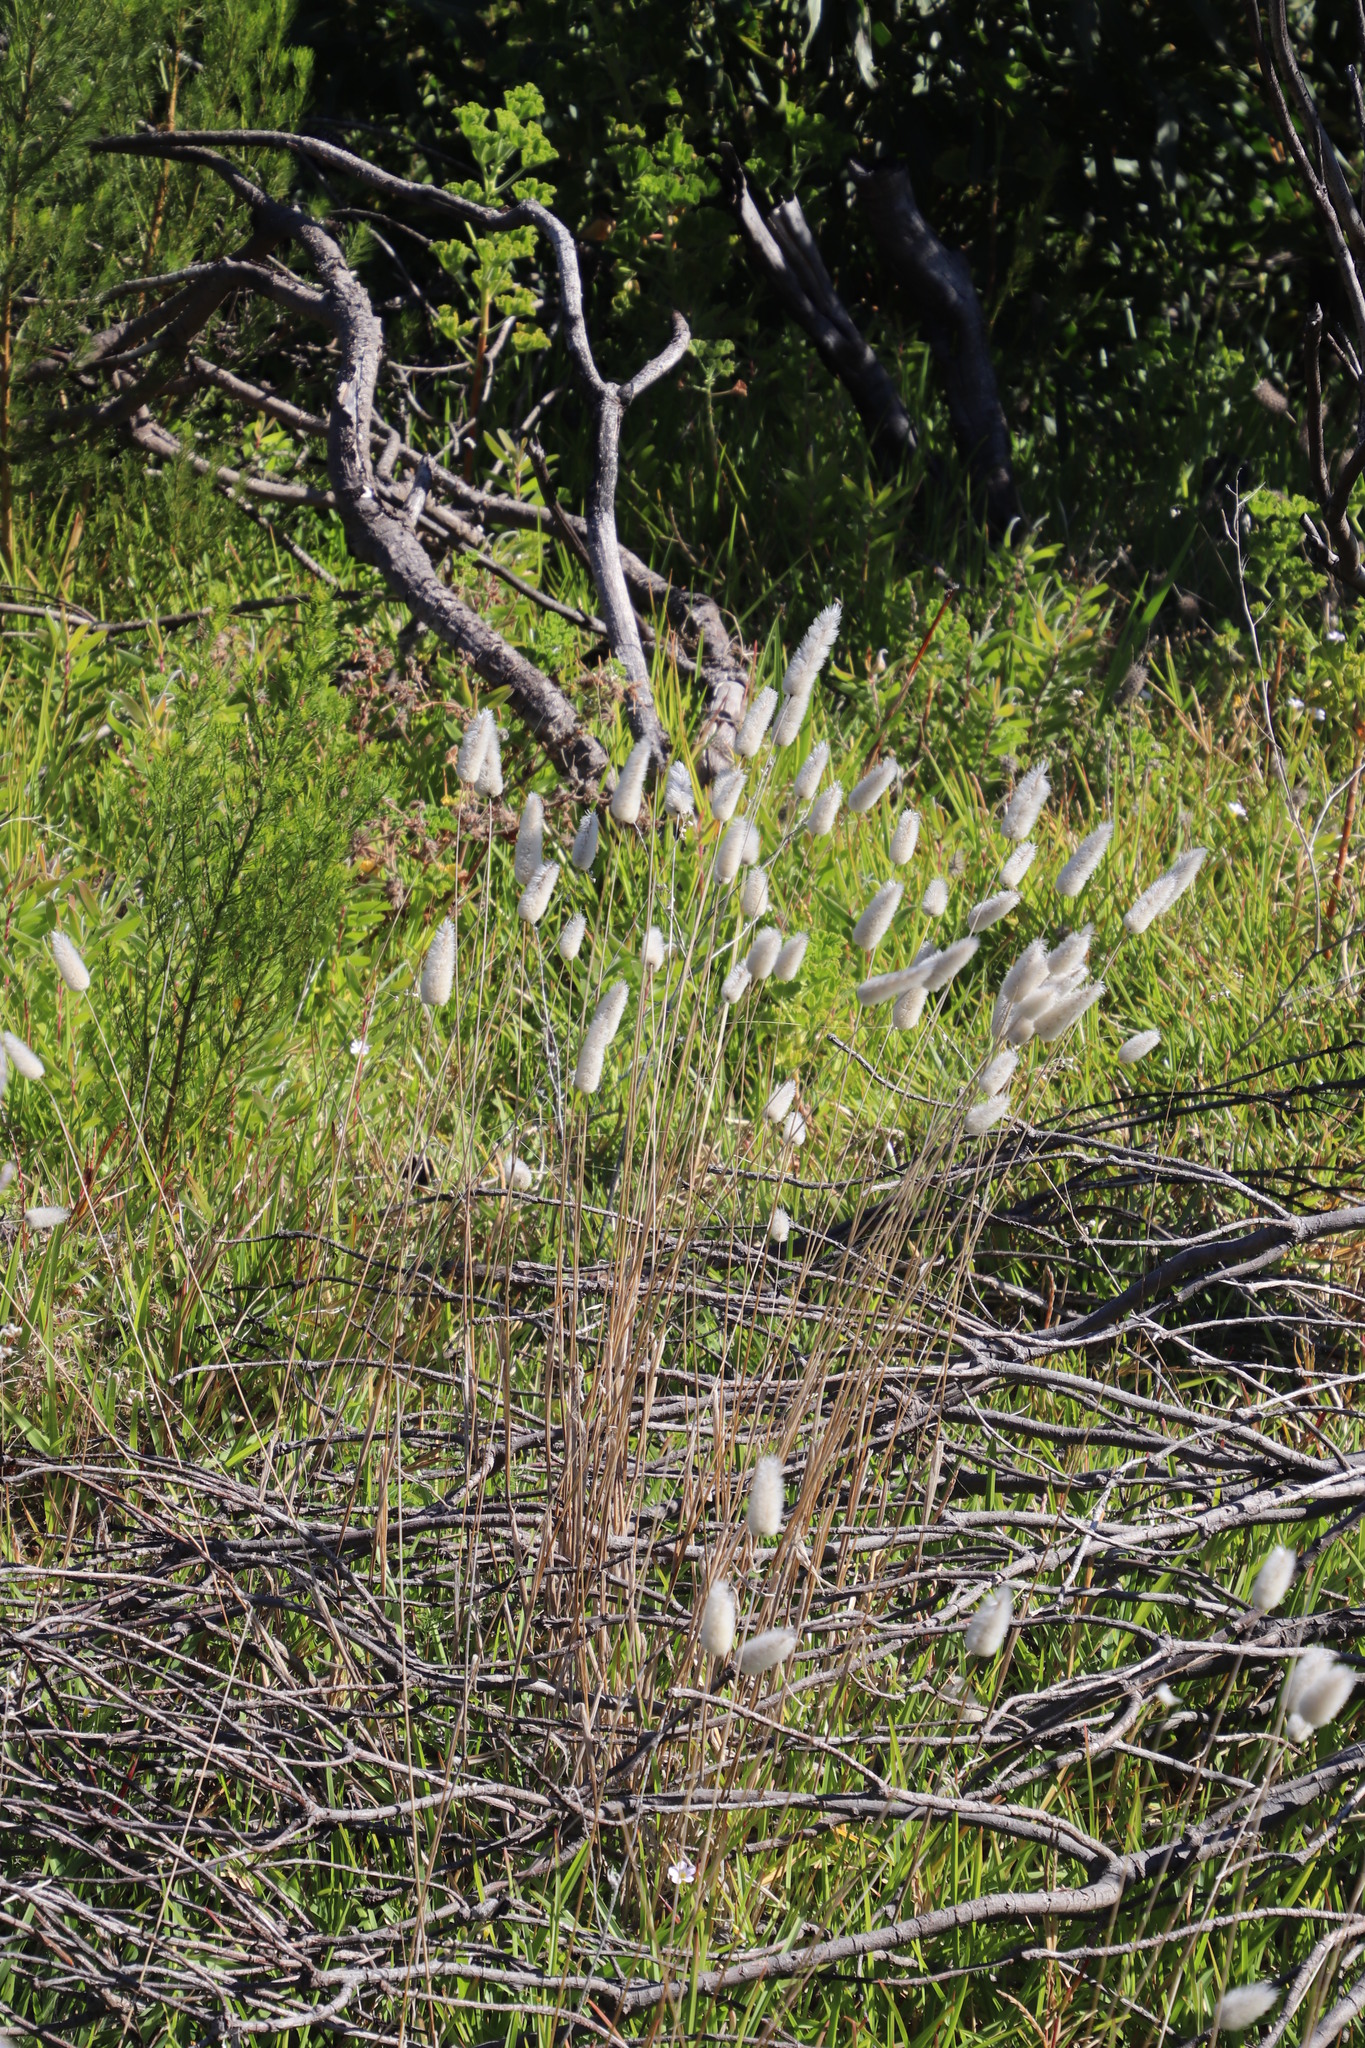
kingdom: Plantae
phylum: Tracheophyta
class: Liliopsida
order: Poales
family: Poaceae
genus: Lagurus
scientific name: Lagurus ovatus
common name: Hare's-tail
